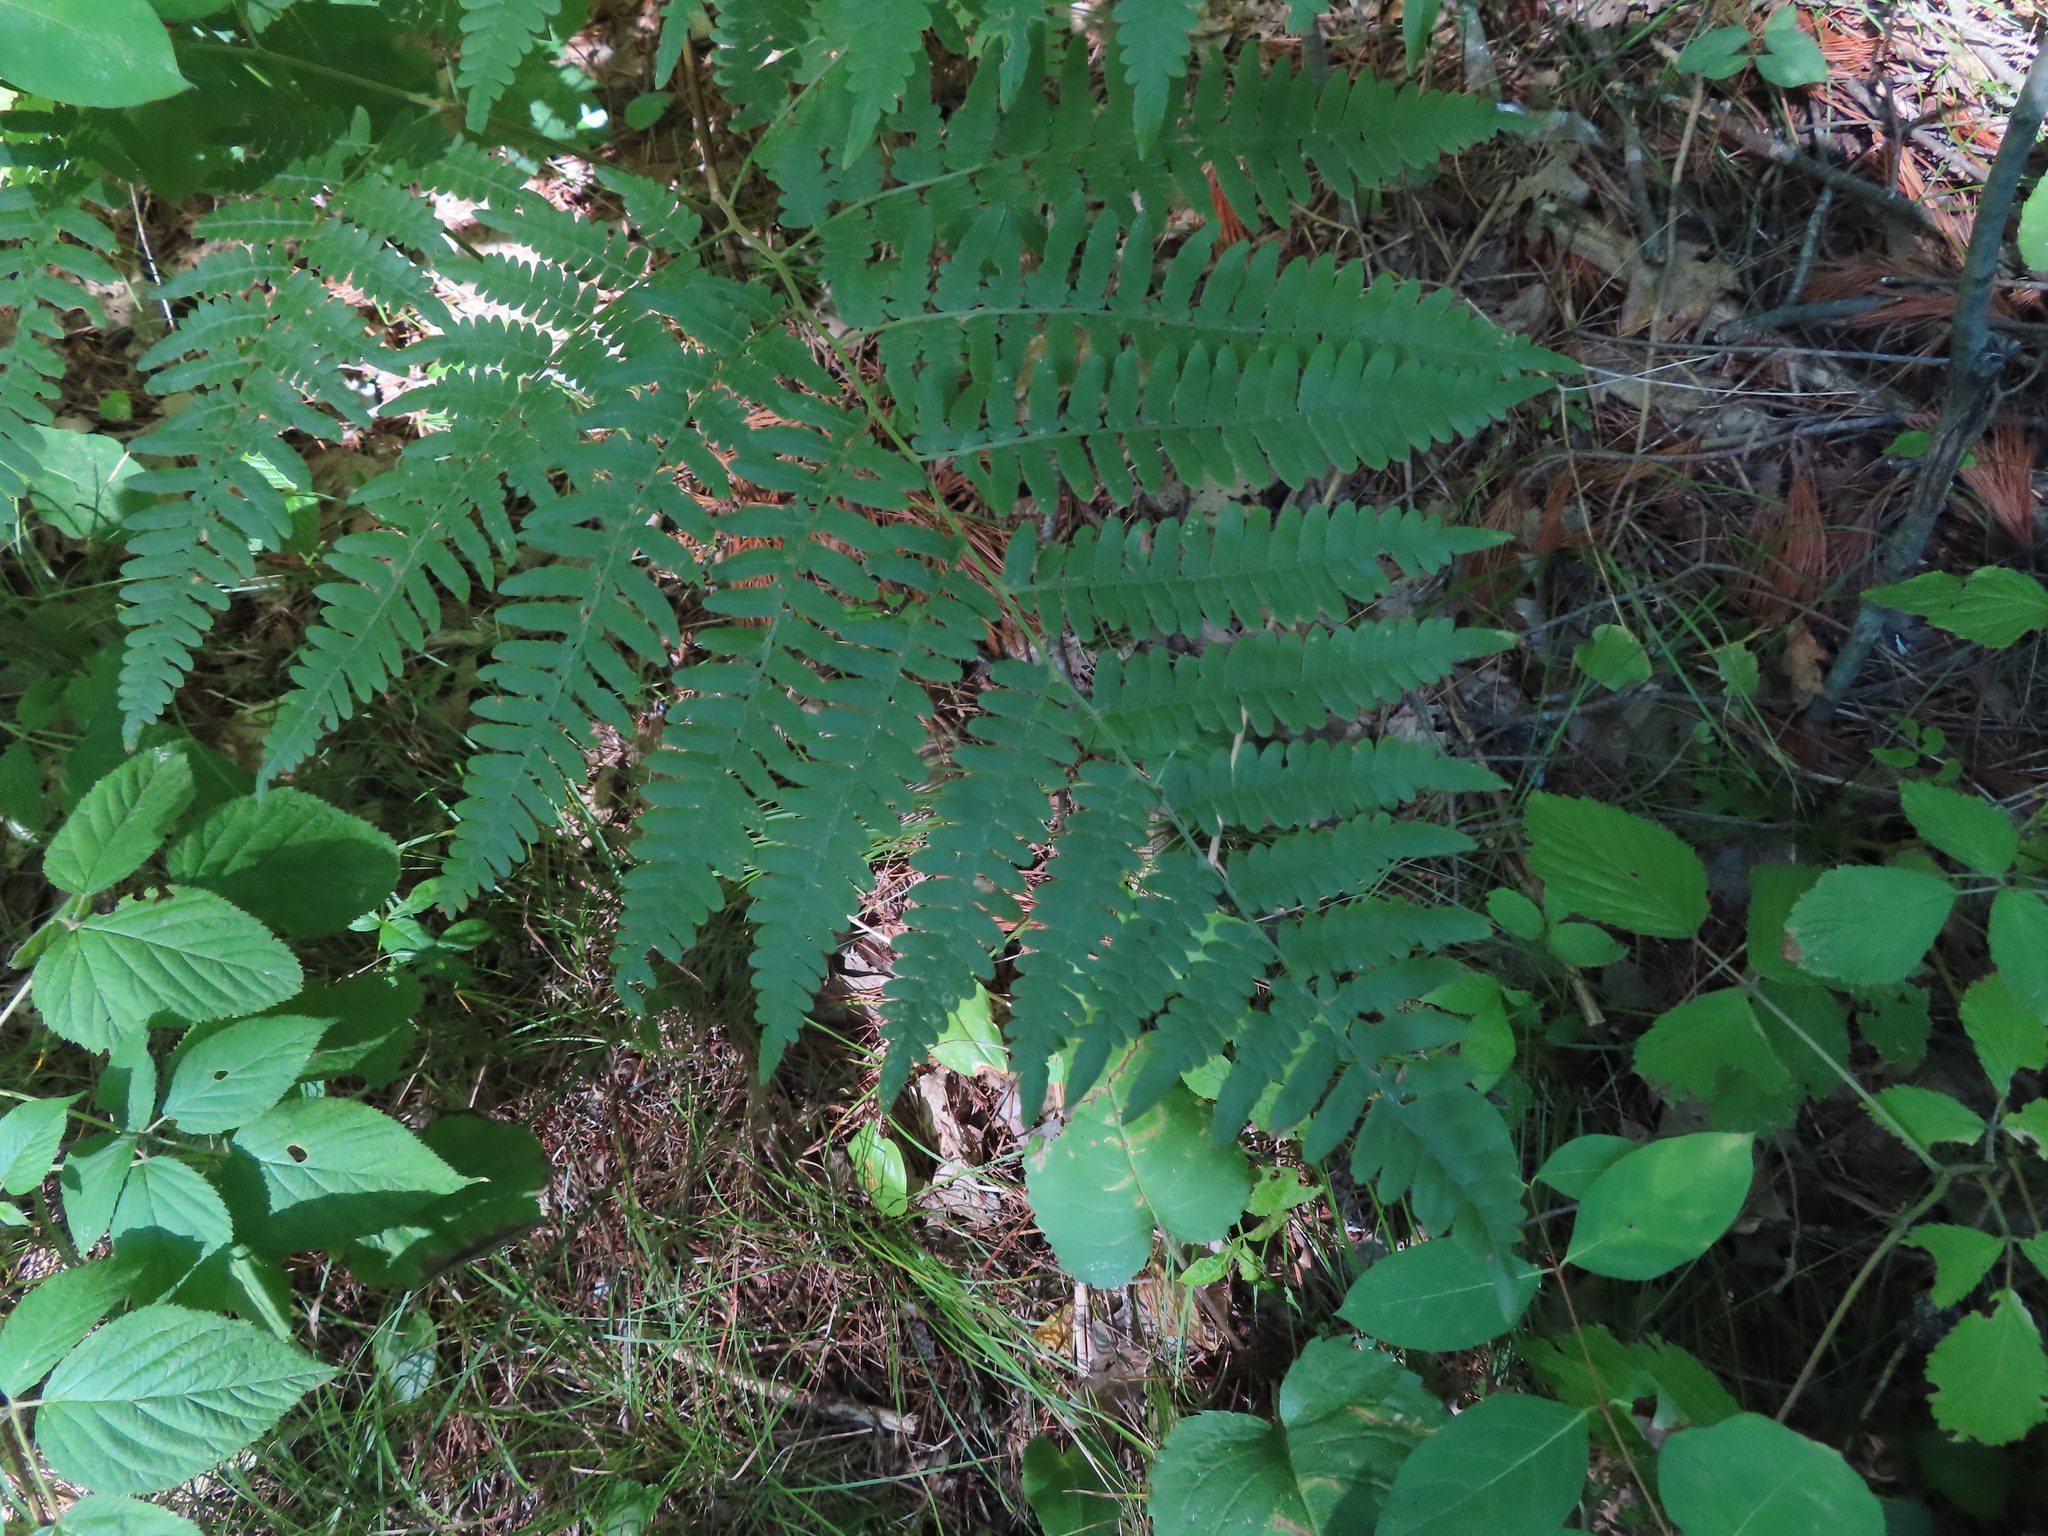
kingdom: Plantae
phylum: Tracheophyta
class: Polypodiopsida
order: Polypodiales
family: Dennstaedtiaceae
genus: Pteridium
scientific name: Pteridium aquilinum
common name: Bracken
